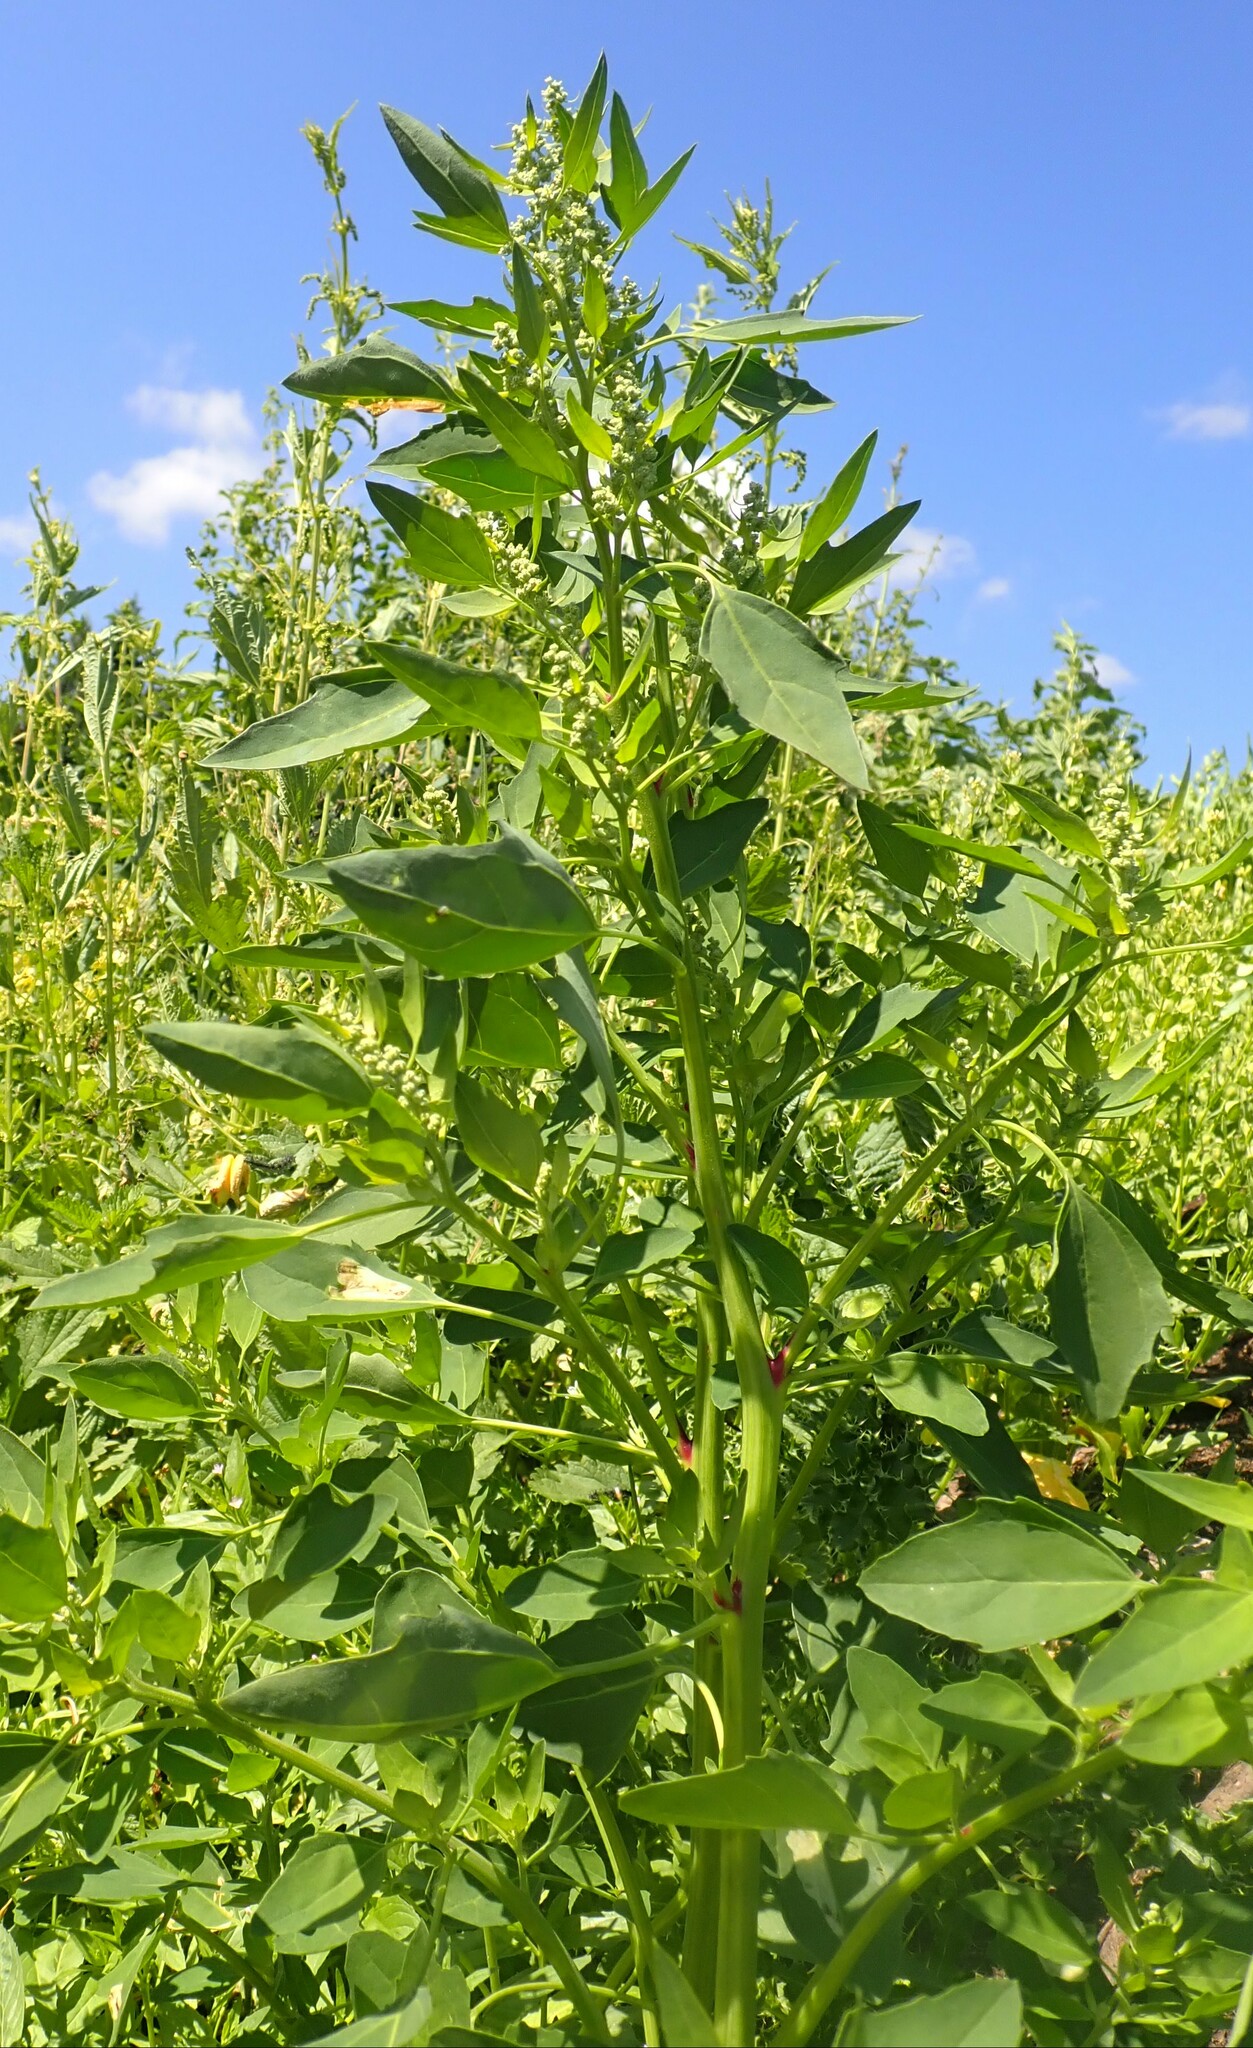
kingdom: Plantae
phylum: Tracheophyta
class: Magnoliopsida
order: Caryophyllales
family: Amaranthaceae
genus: Chenopodium
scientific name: Chenopodium album
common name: Fat-hen
